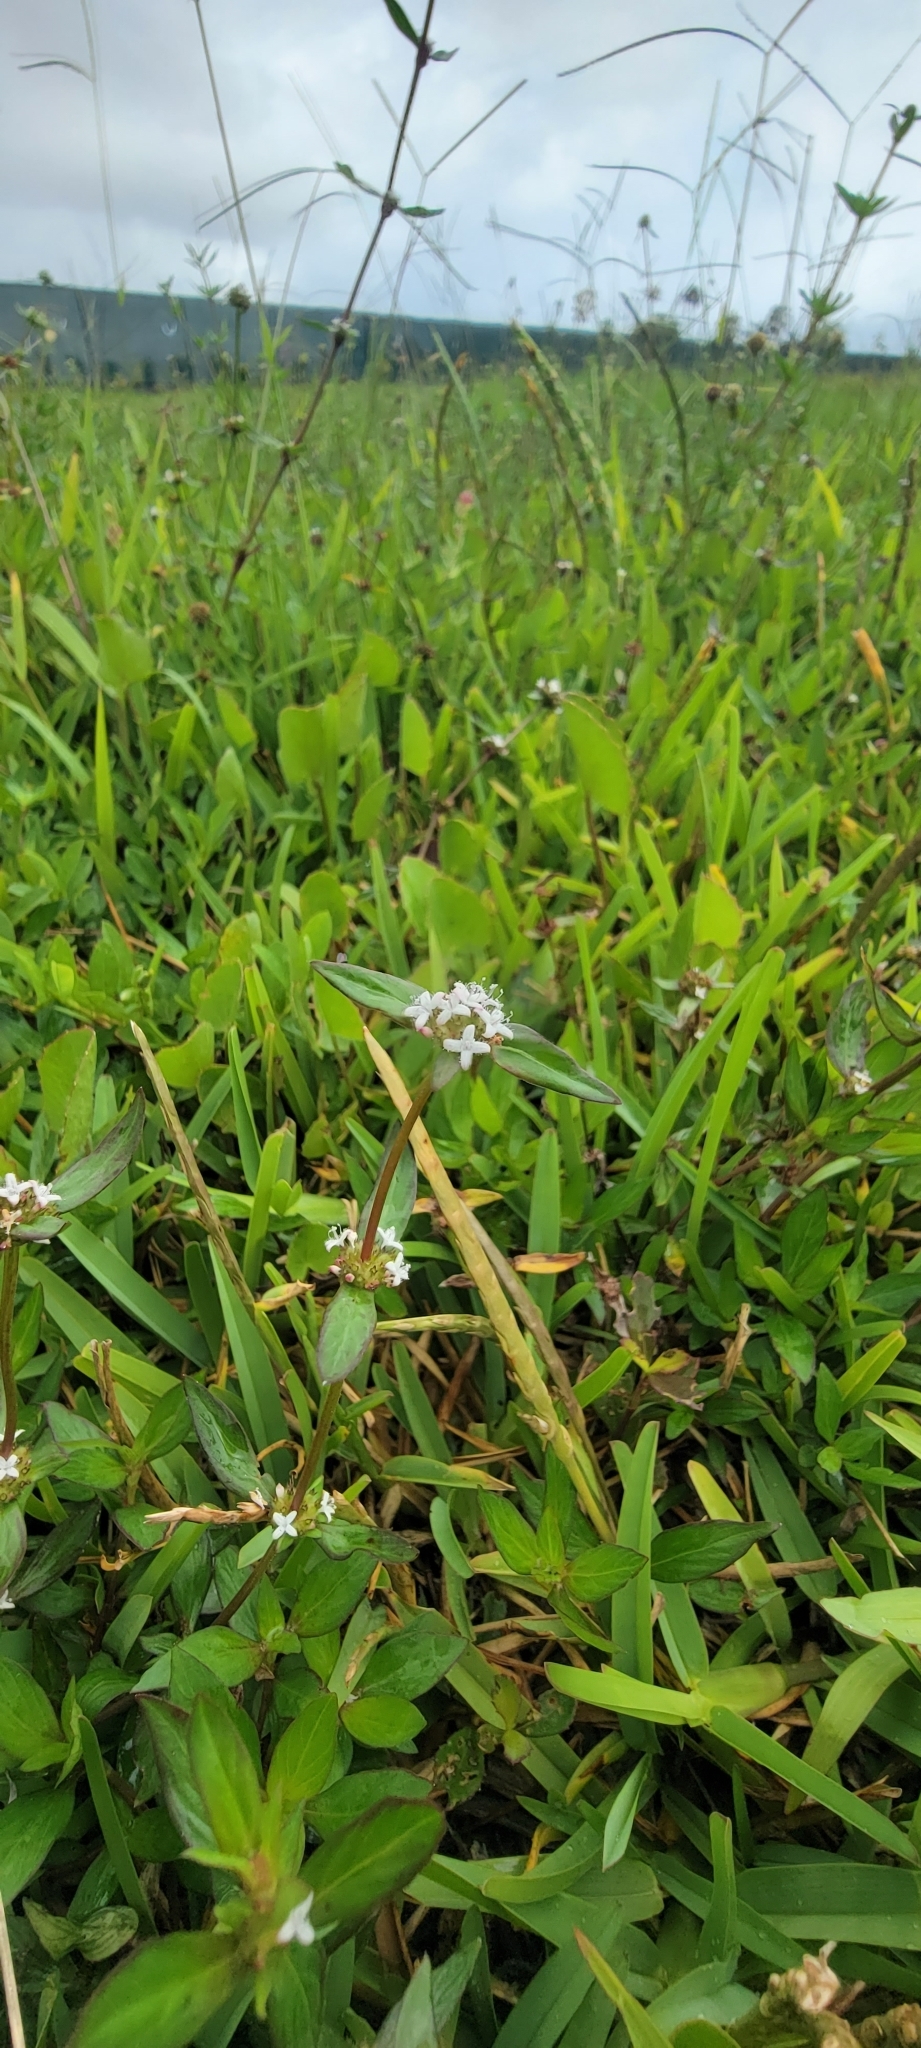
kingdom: Plantae
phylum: Tracheophyta
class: Magnoliopsida
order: Gentianales
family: Rubiaceae
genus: Spermacoce
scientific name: Spermacoce remota
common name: Woodland false buttonweed
